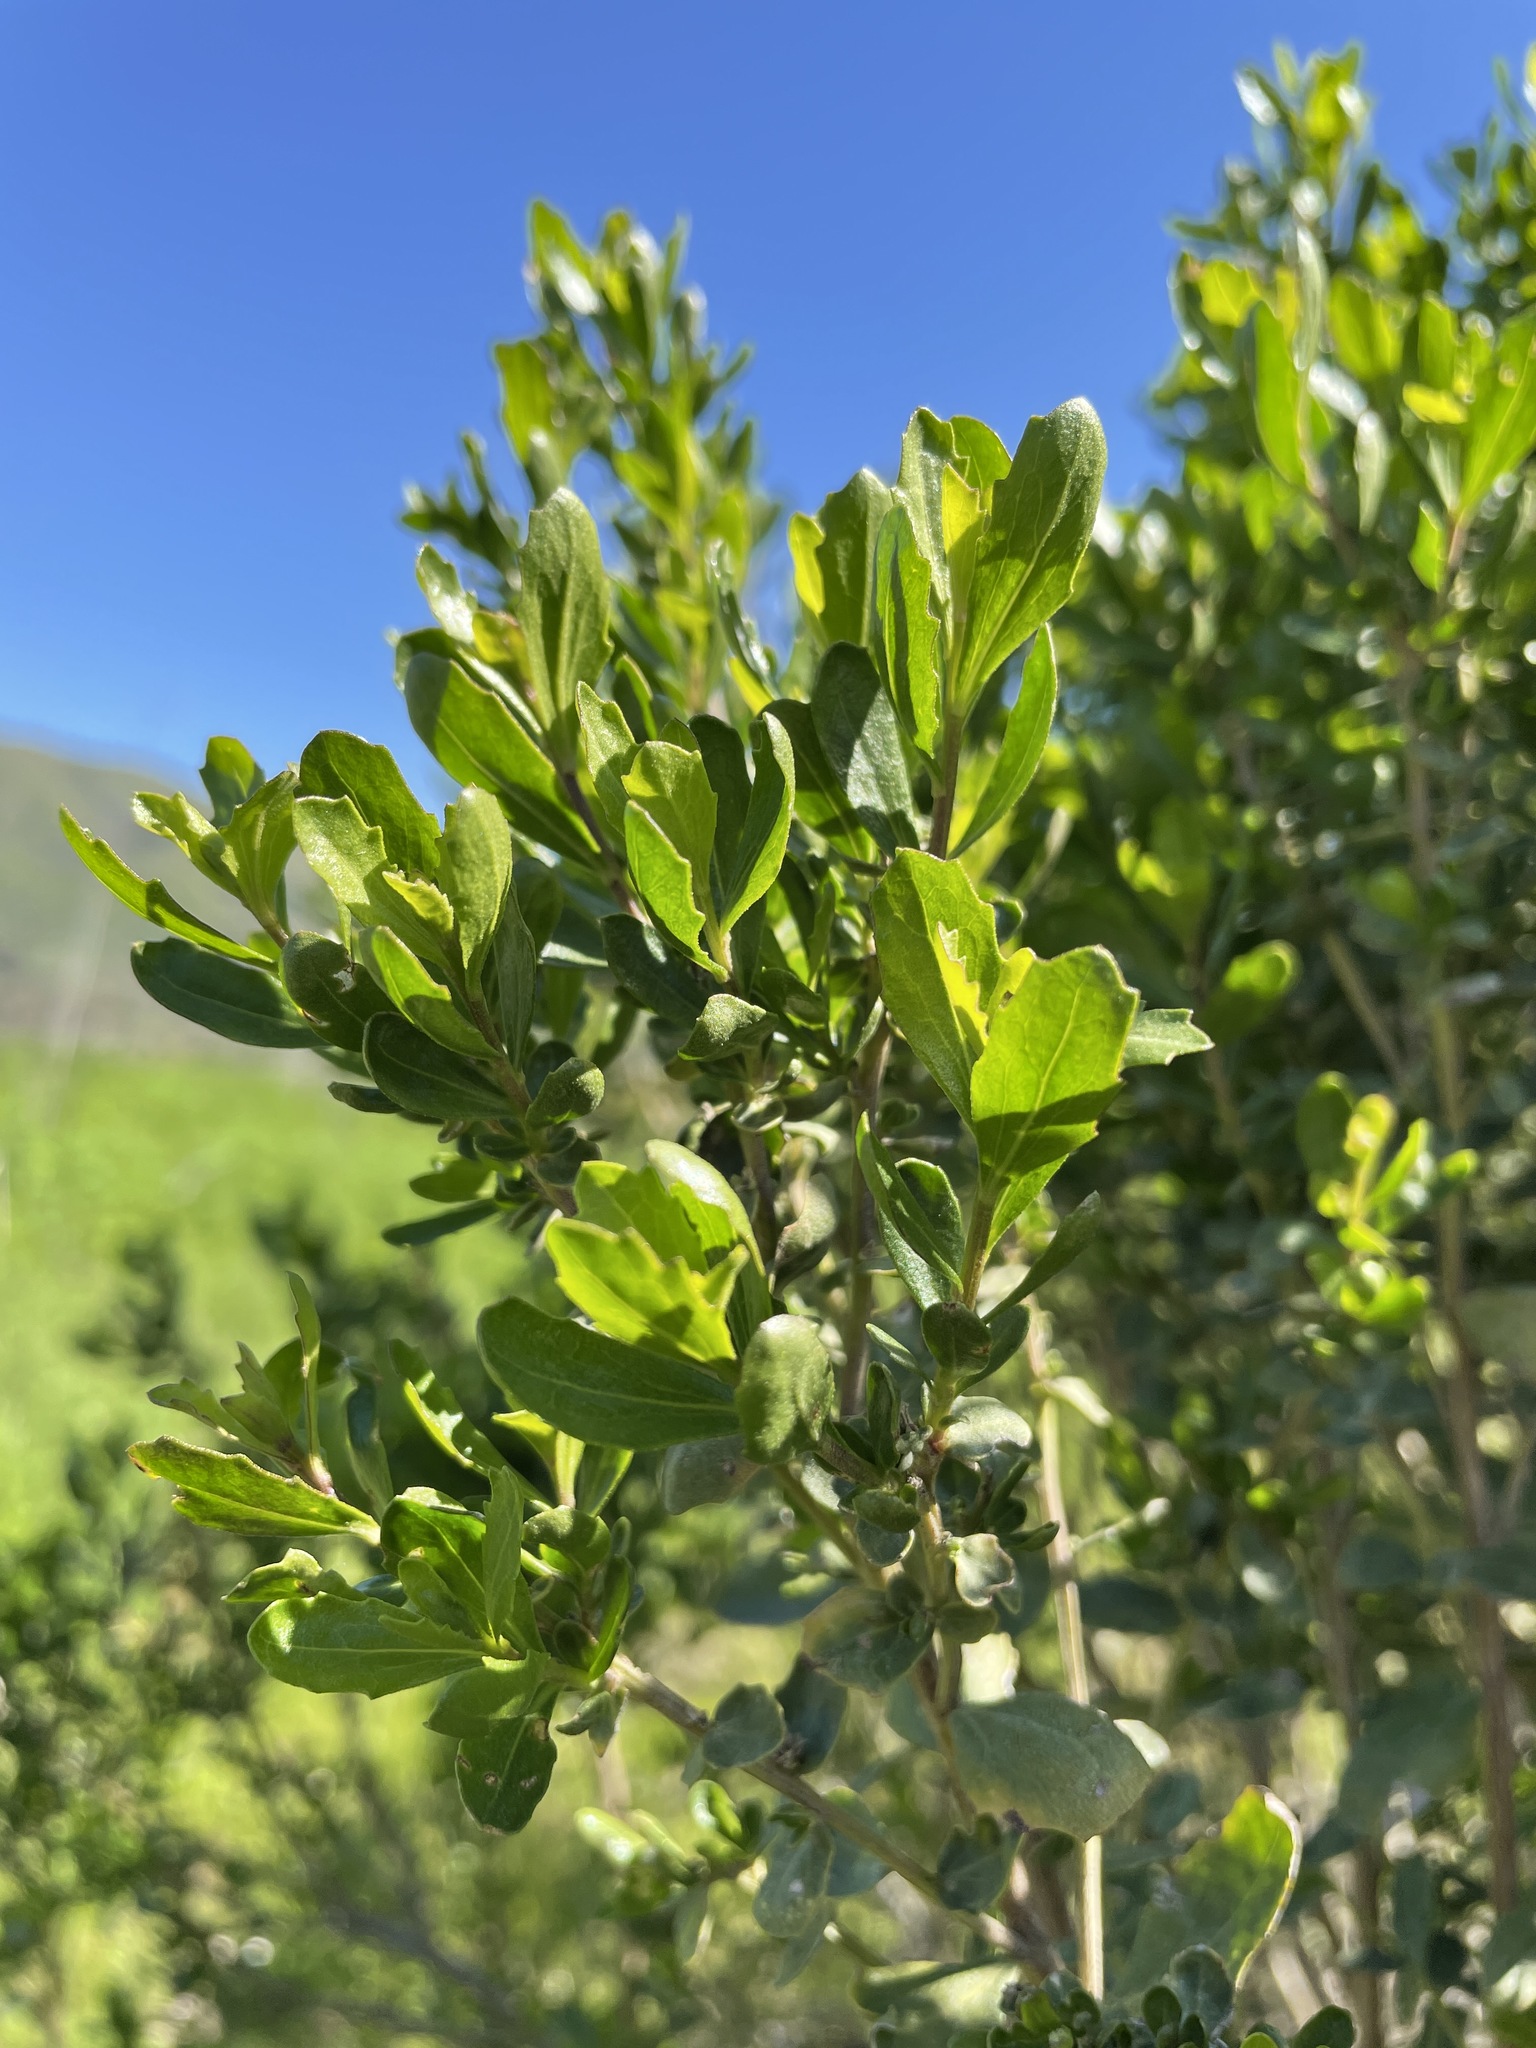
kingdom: Plantae
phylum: Tracheophyta
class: Magnoliopsida
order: Asterales
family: Asteraceae
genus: Baccharis
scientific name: Baccharis pilularis
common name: Coyotebrush
